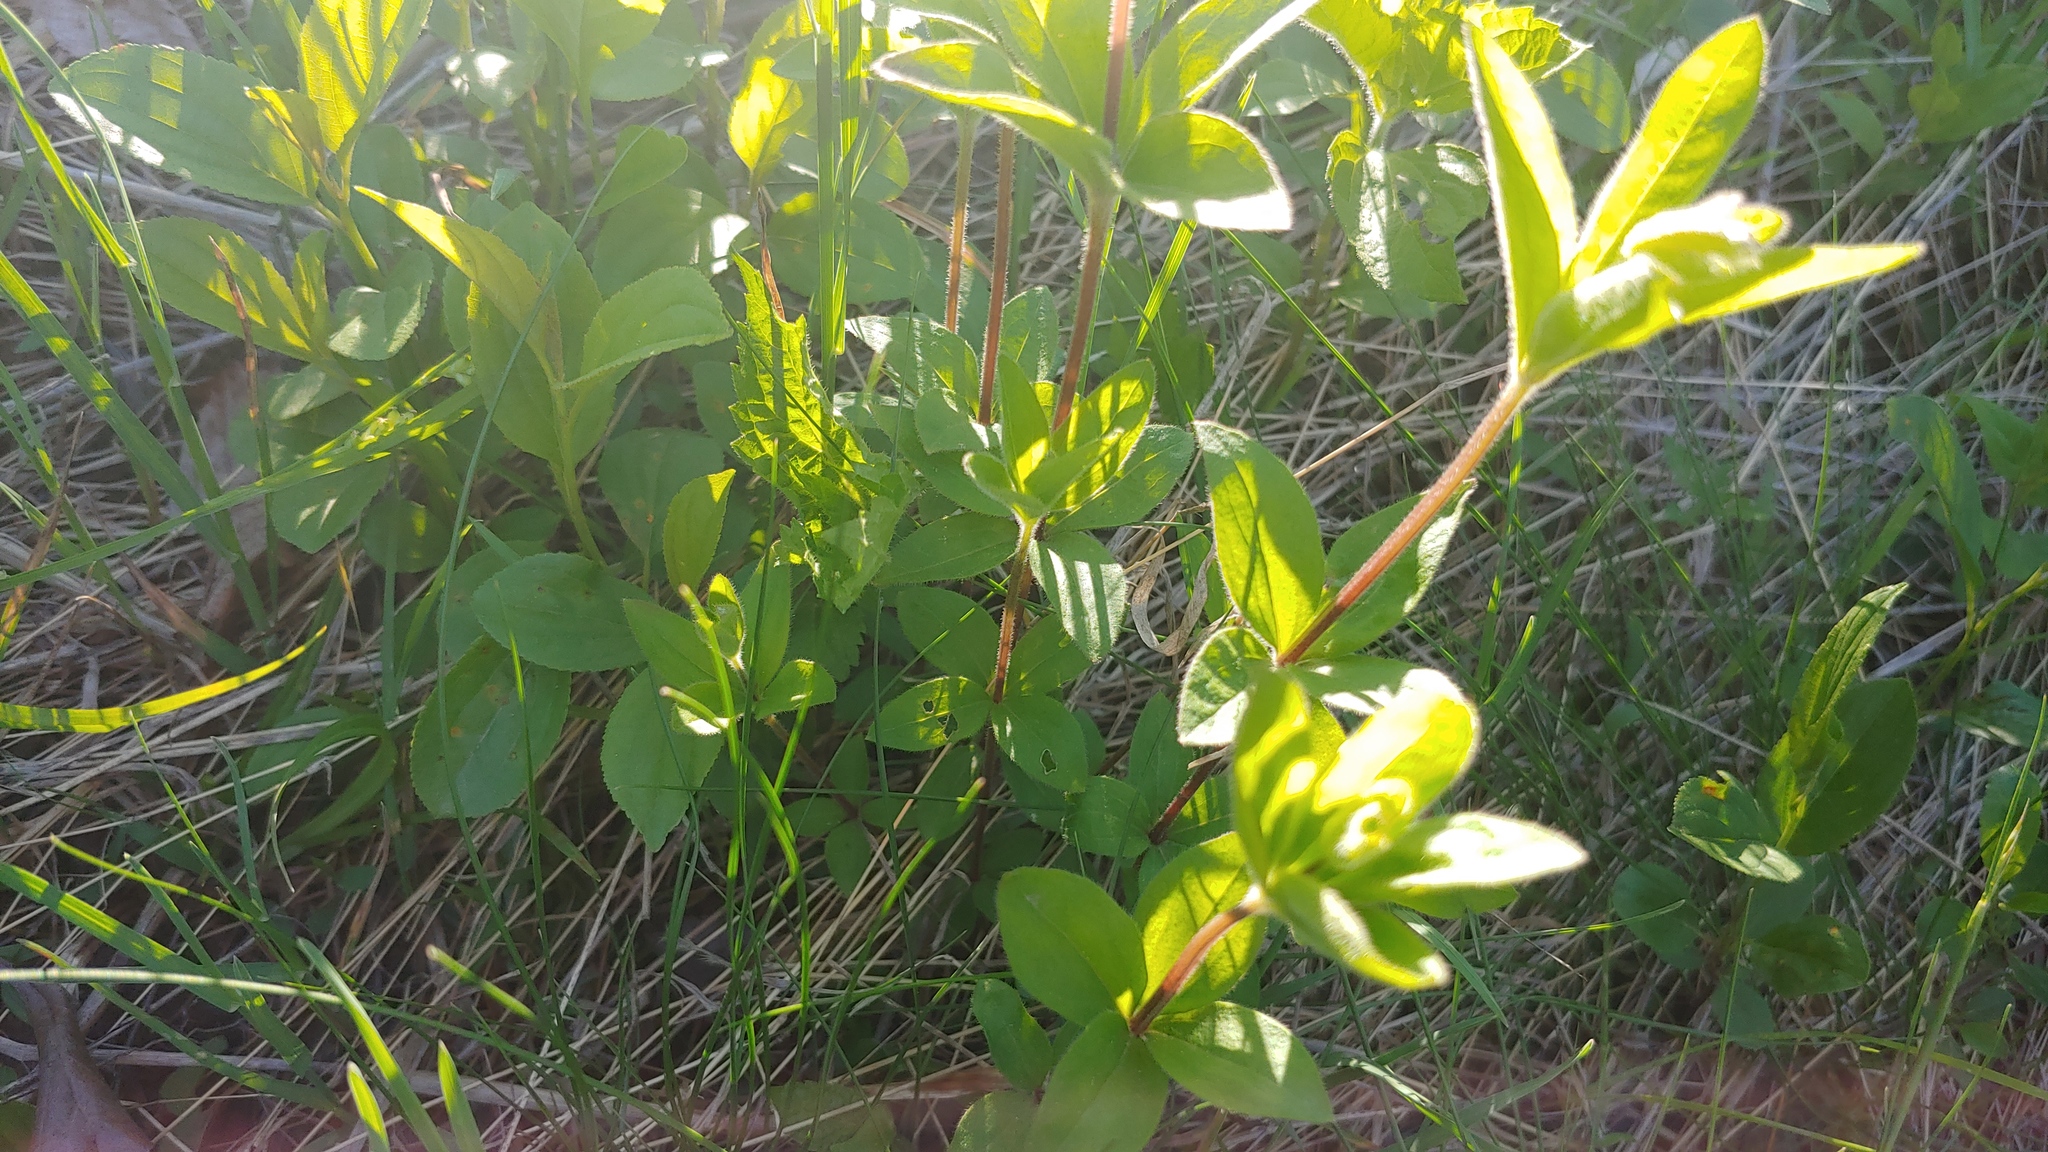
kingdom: Plantae
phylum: Tracheophyta
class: Magnoliopsida
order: Gentianales
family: Rubiaceae
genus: Galium
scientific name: Galium circaezans
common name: Forest bedstraw
